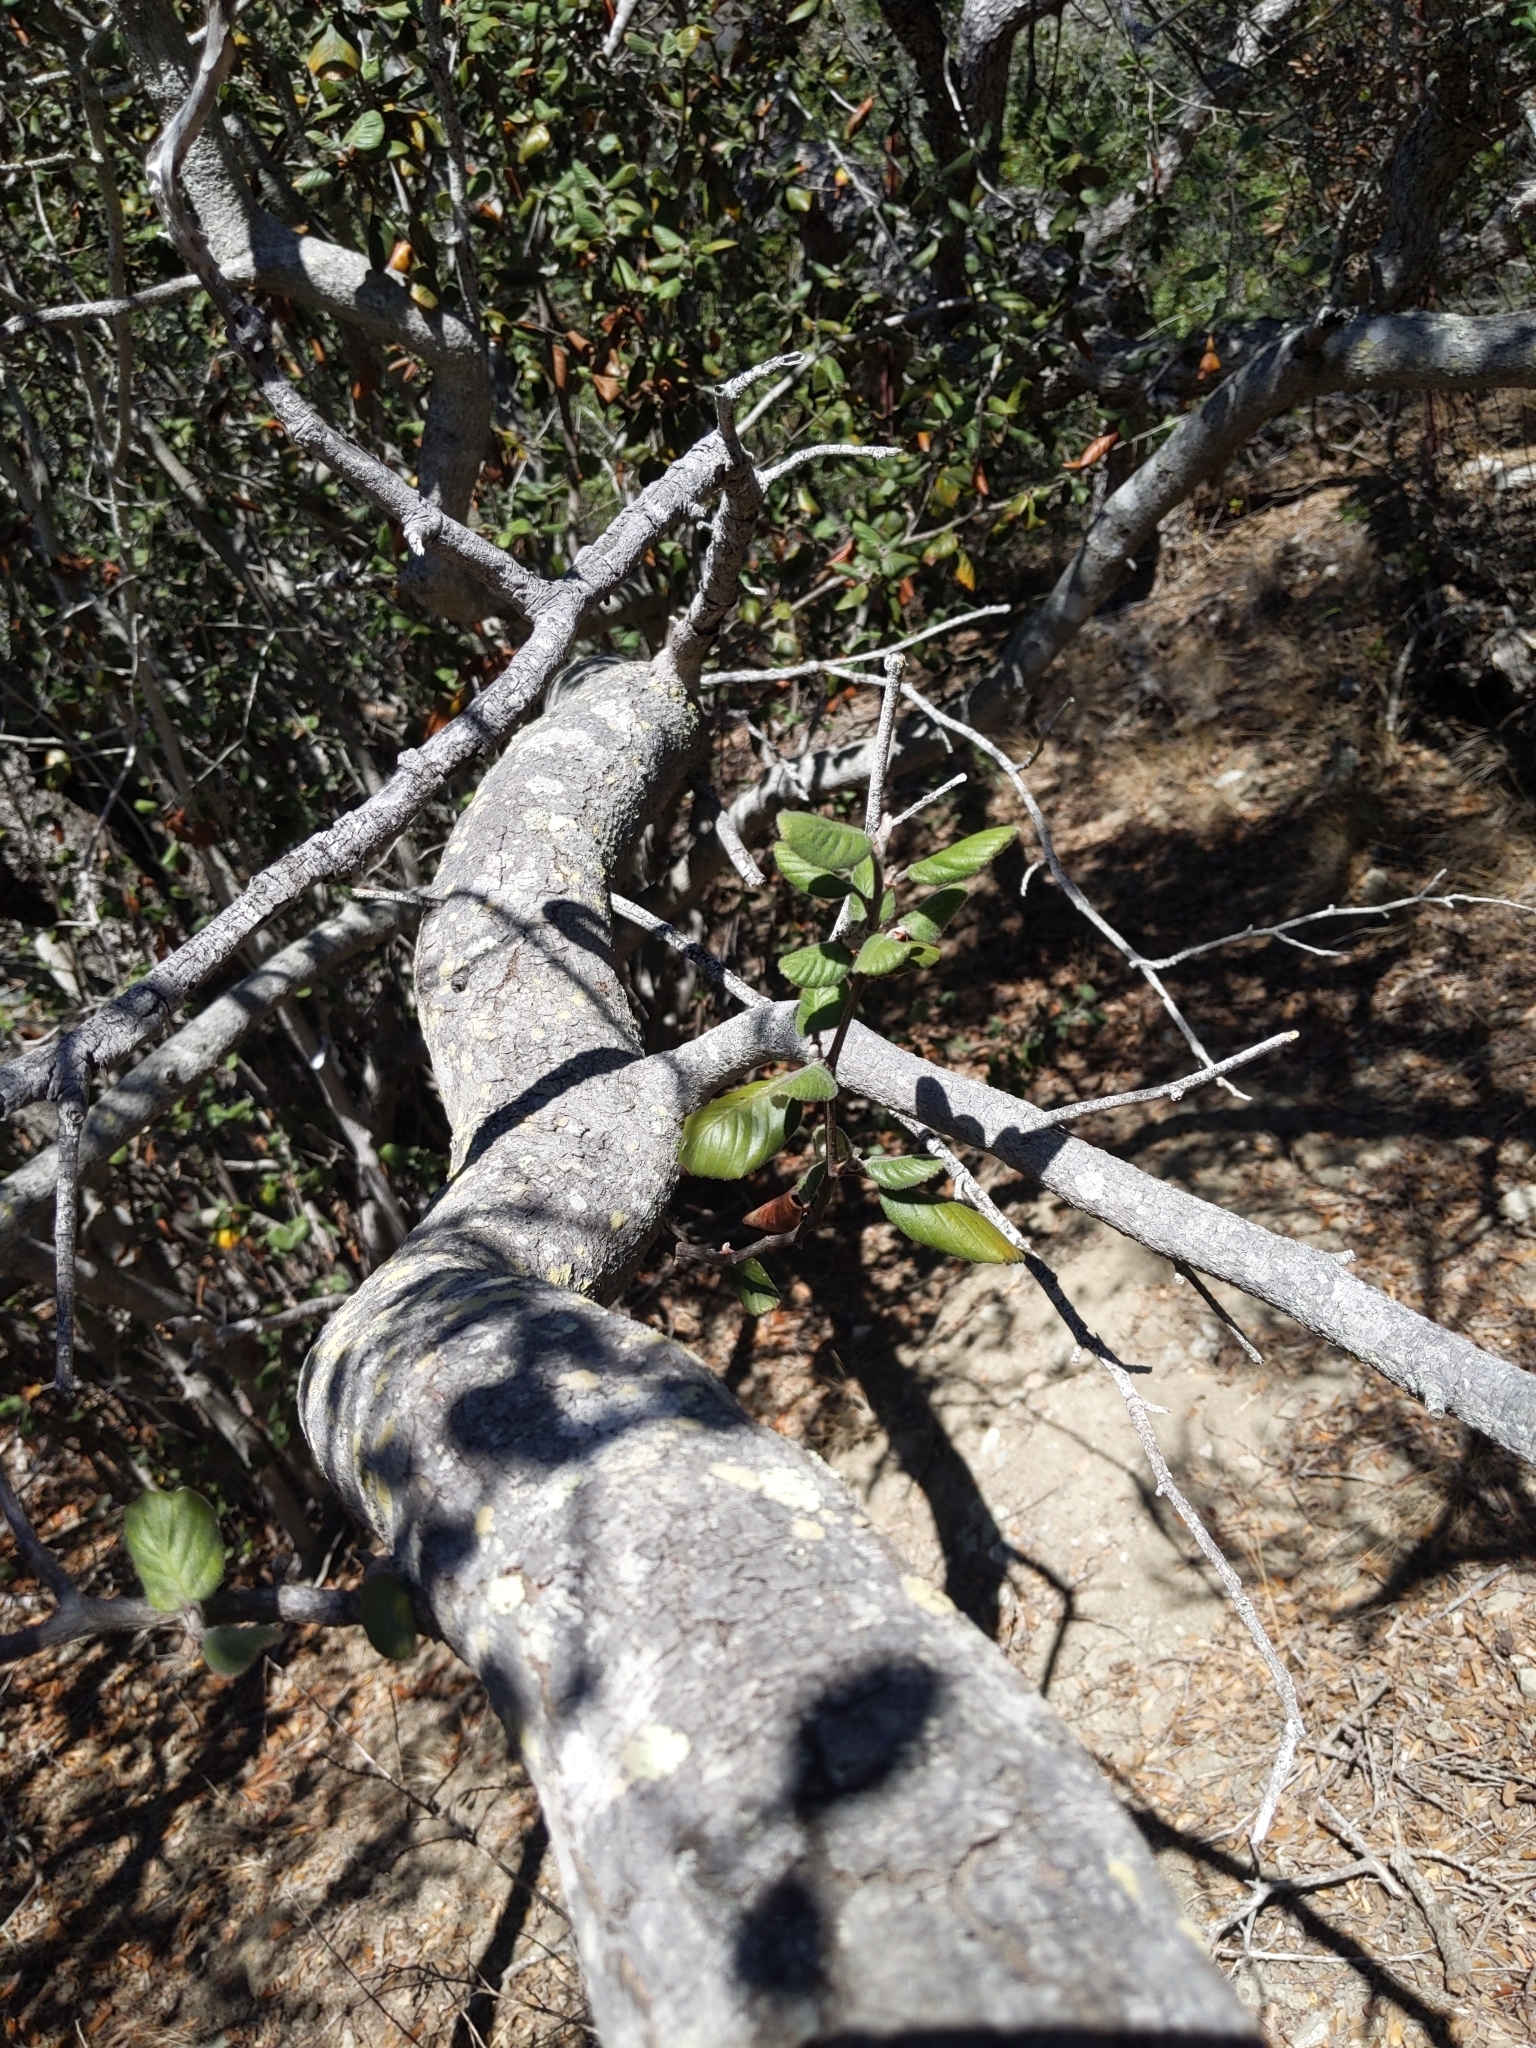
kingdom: Plantae
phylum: Tracheophyta
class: Magnoliopsida
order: Rosales
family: Rosaceae
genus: Cercocarpus
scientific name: Cercocarpus betuloides
